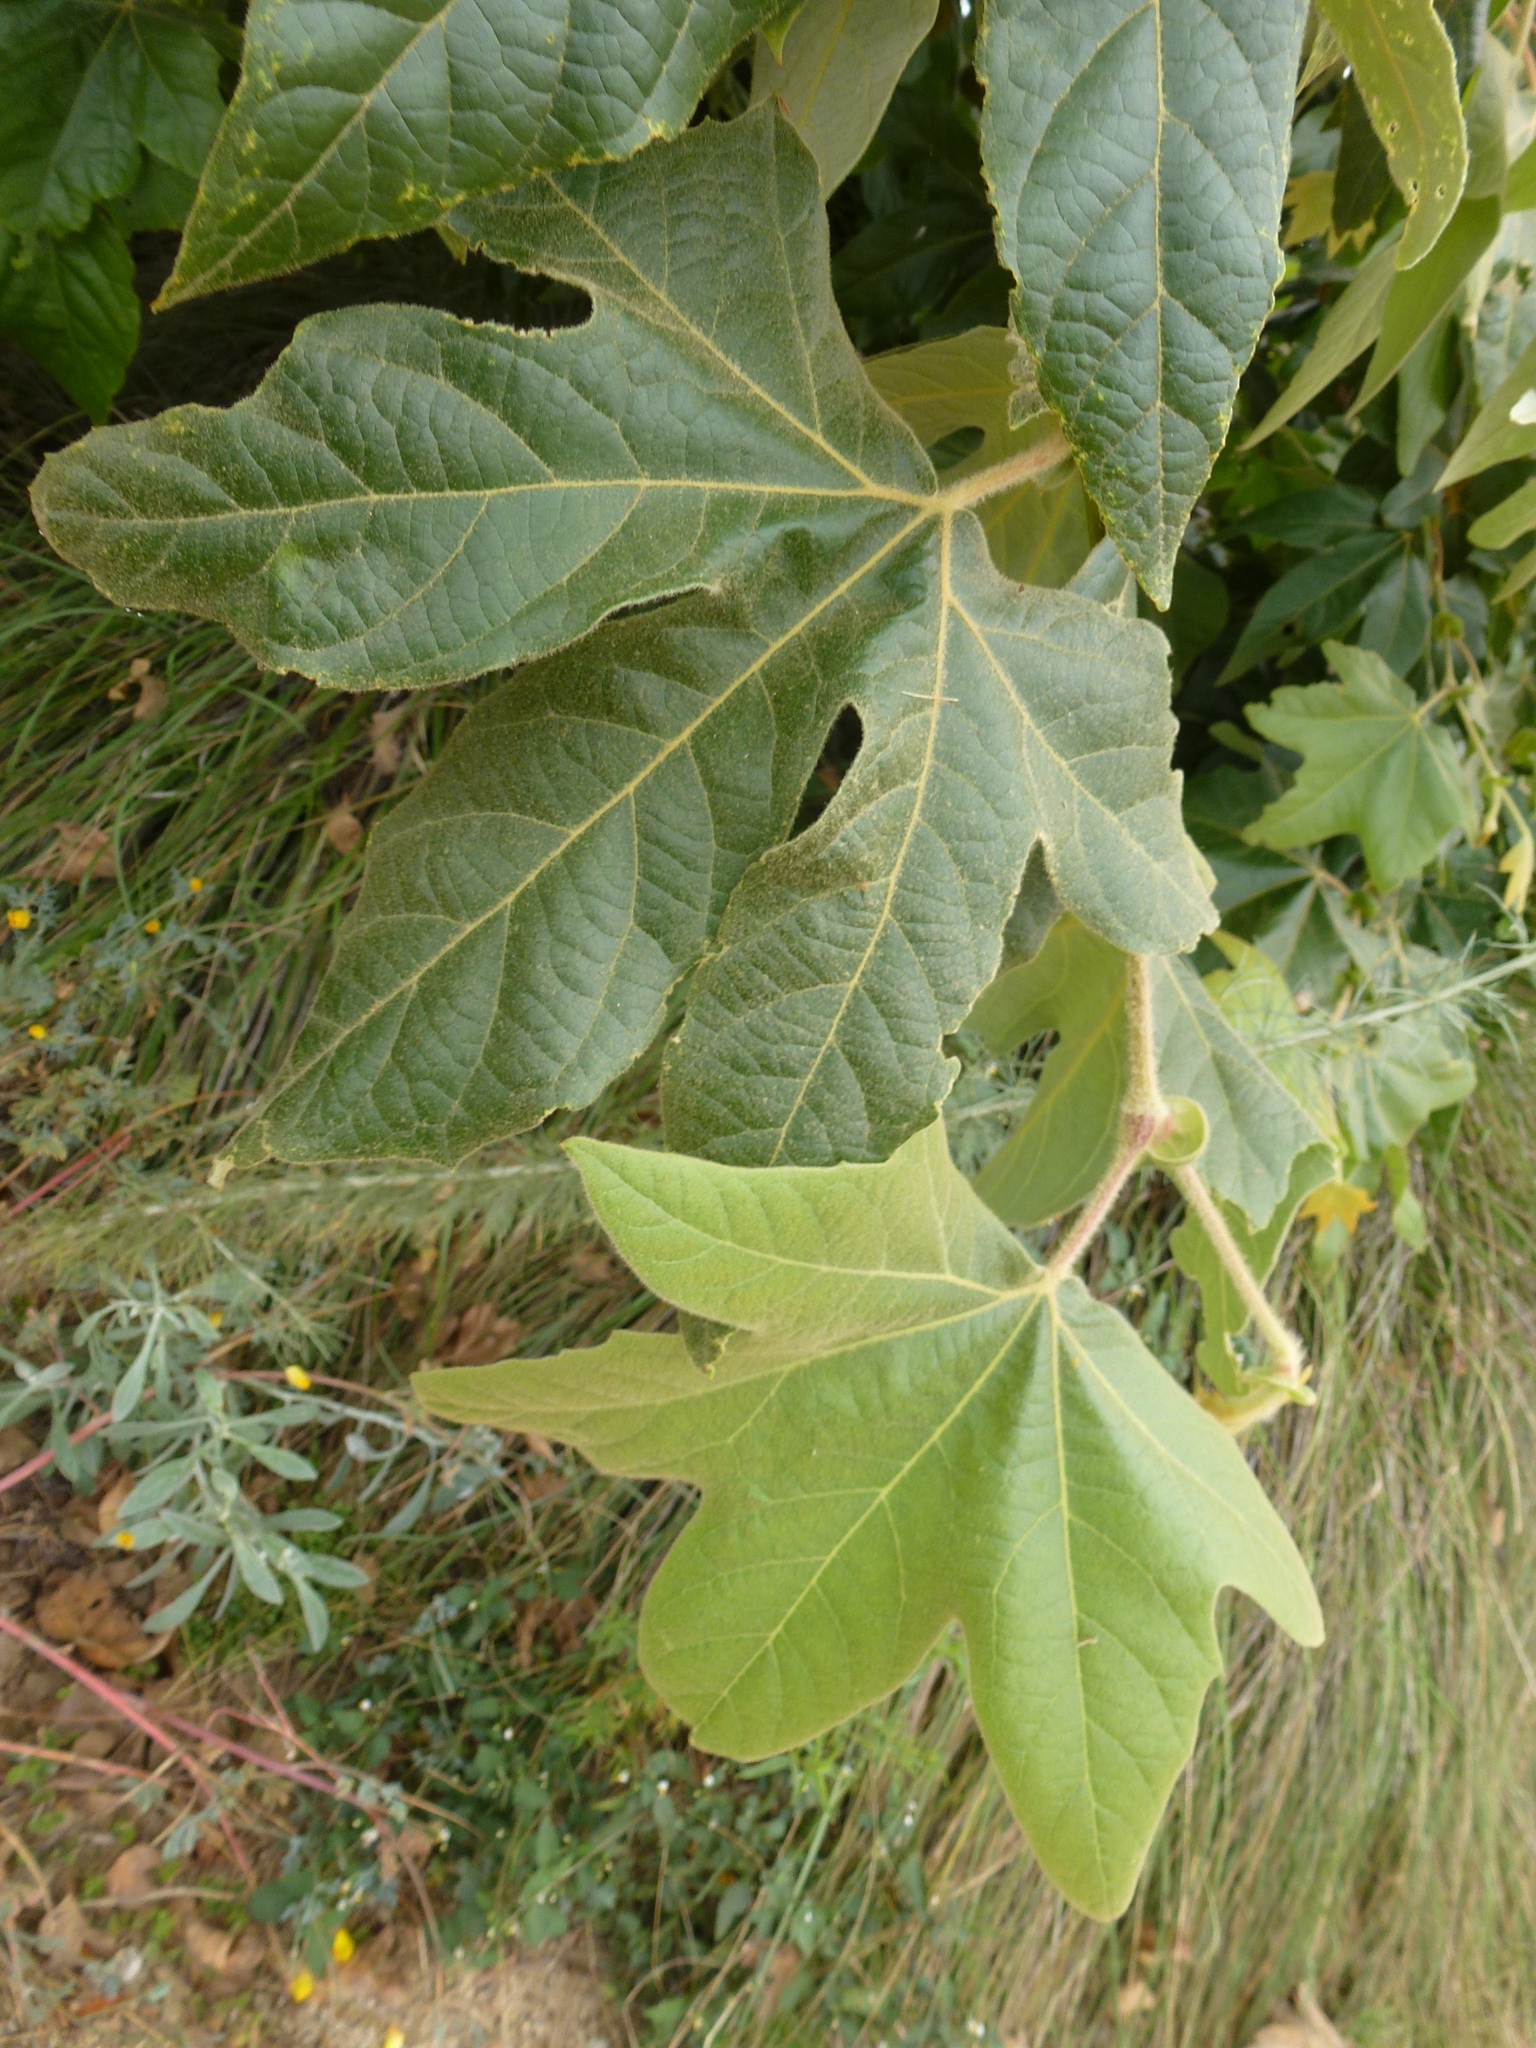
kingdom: Plantae
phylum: Tracheophyta
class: Magnoliopsida
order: Proteales
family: Platanaceae
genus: Platanus
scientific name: Platanus racemosa
